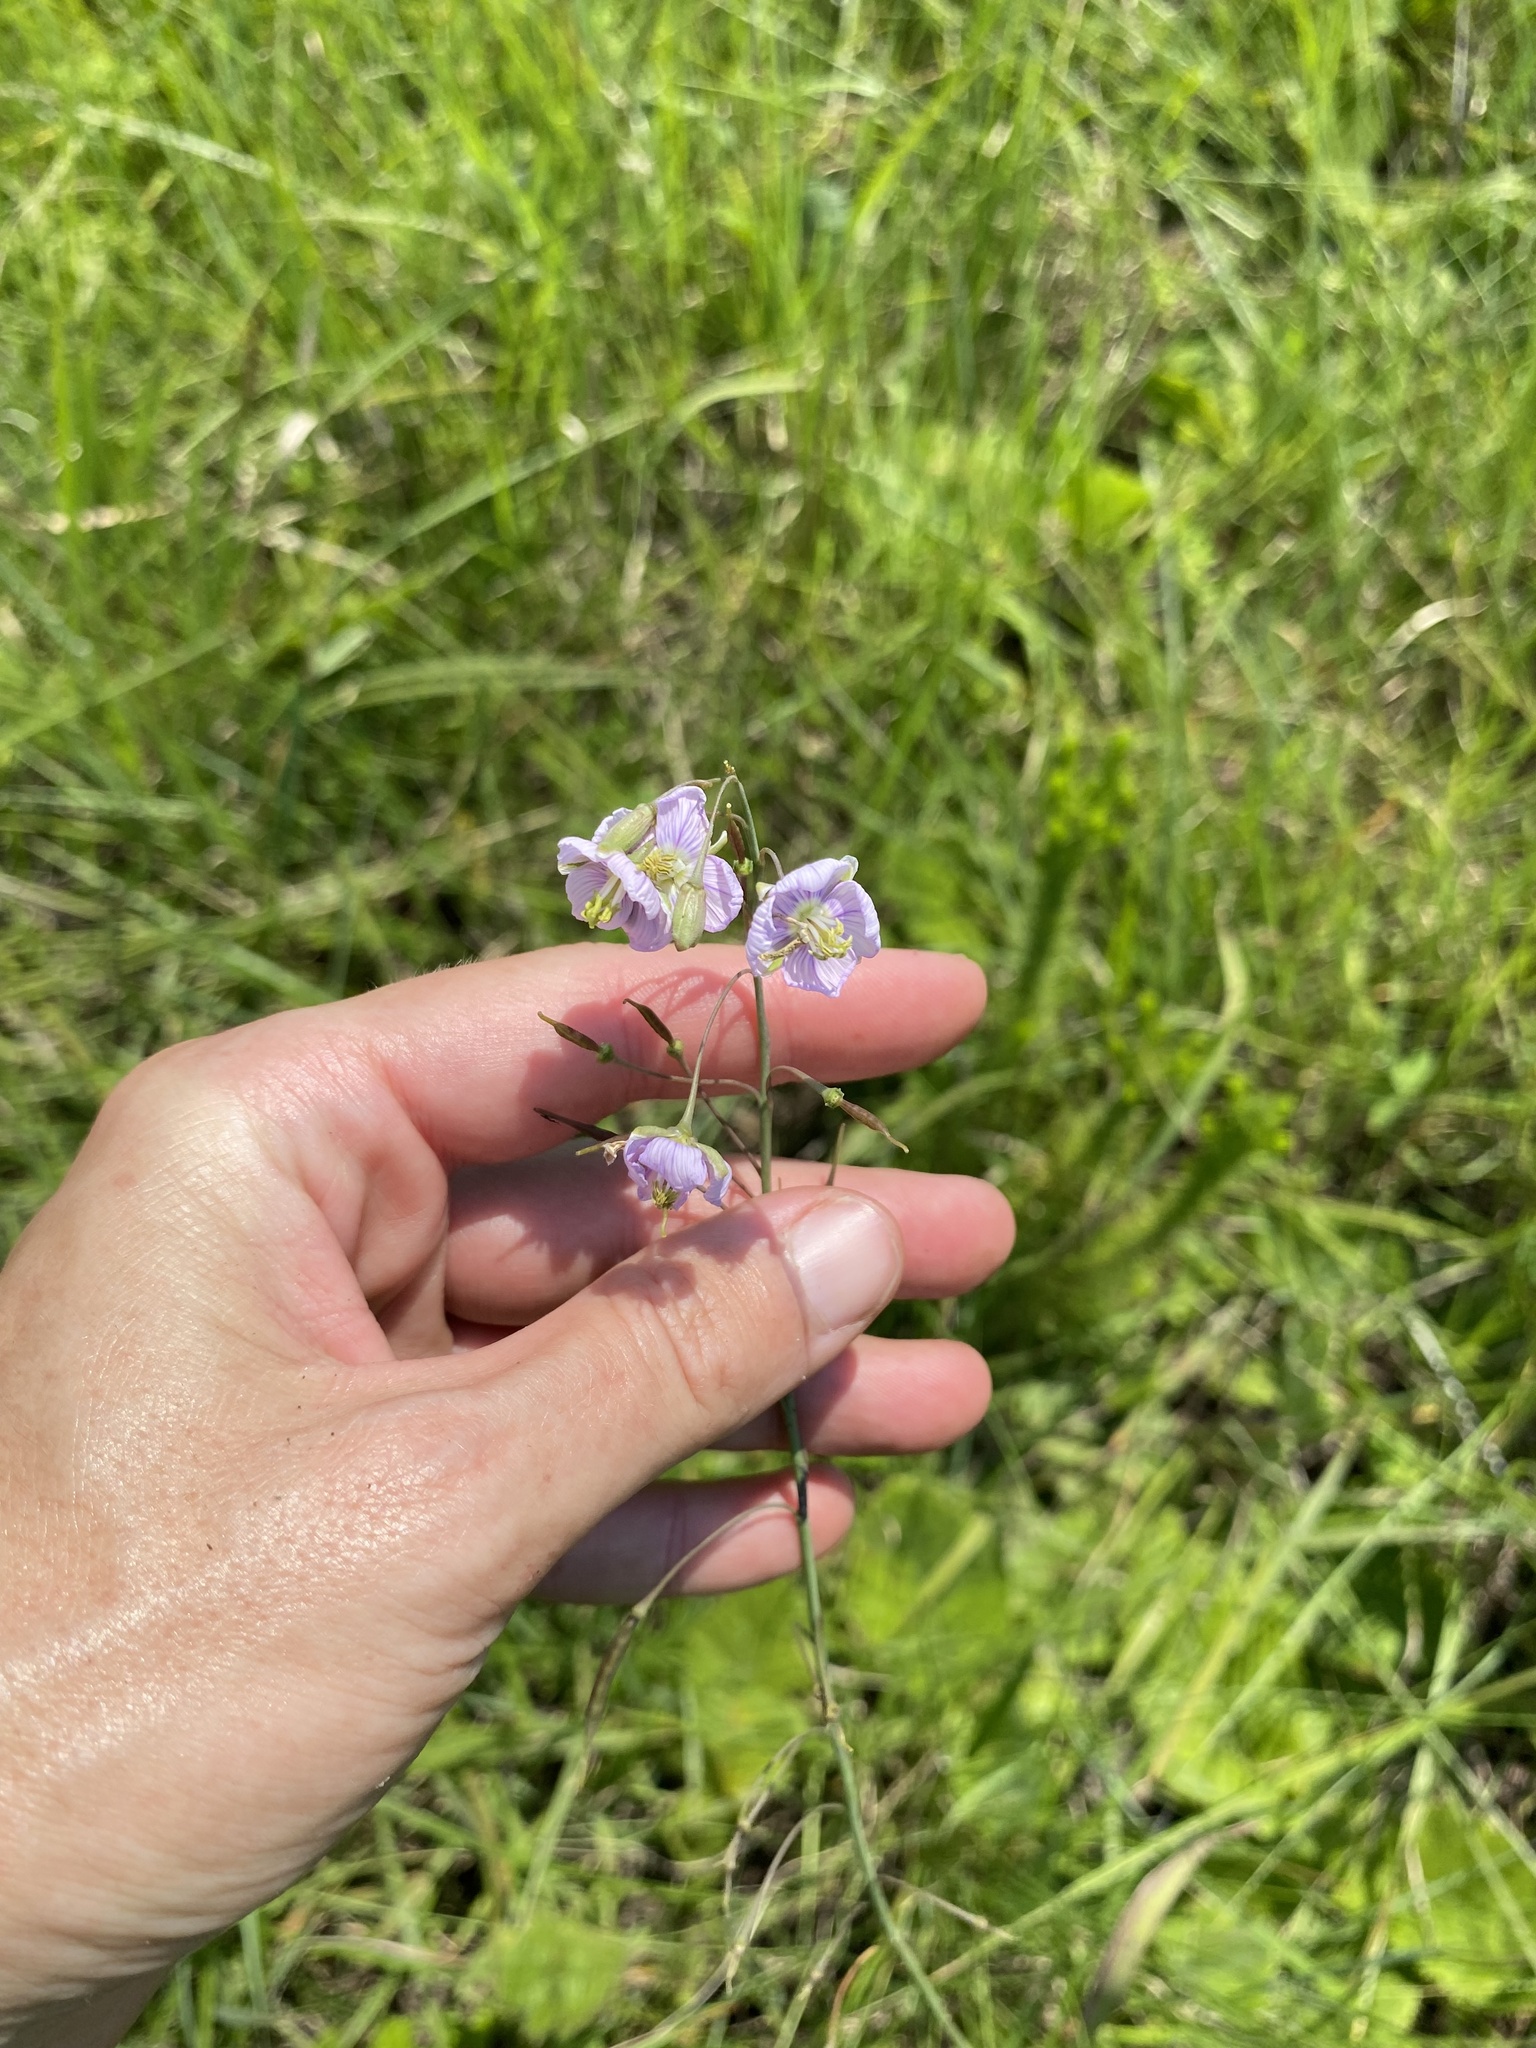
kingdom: Plantae
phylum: Tracheophyta
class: Magnoliopsida
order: Brassicales
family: Brassicaceae
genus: Heliophila
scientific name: Heliophila rigidiuscula
